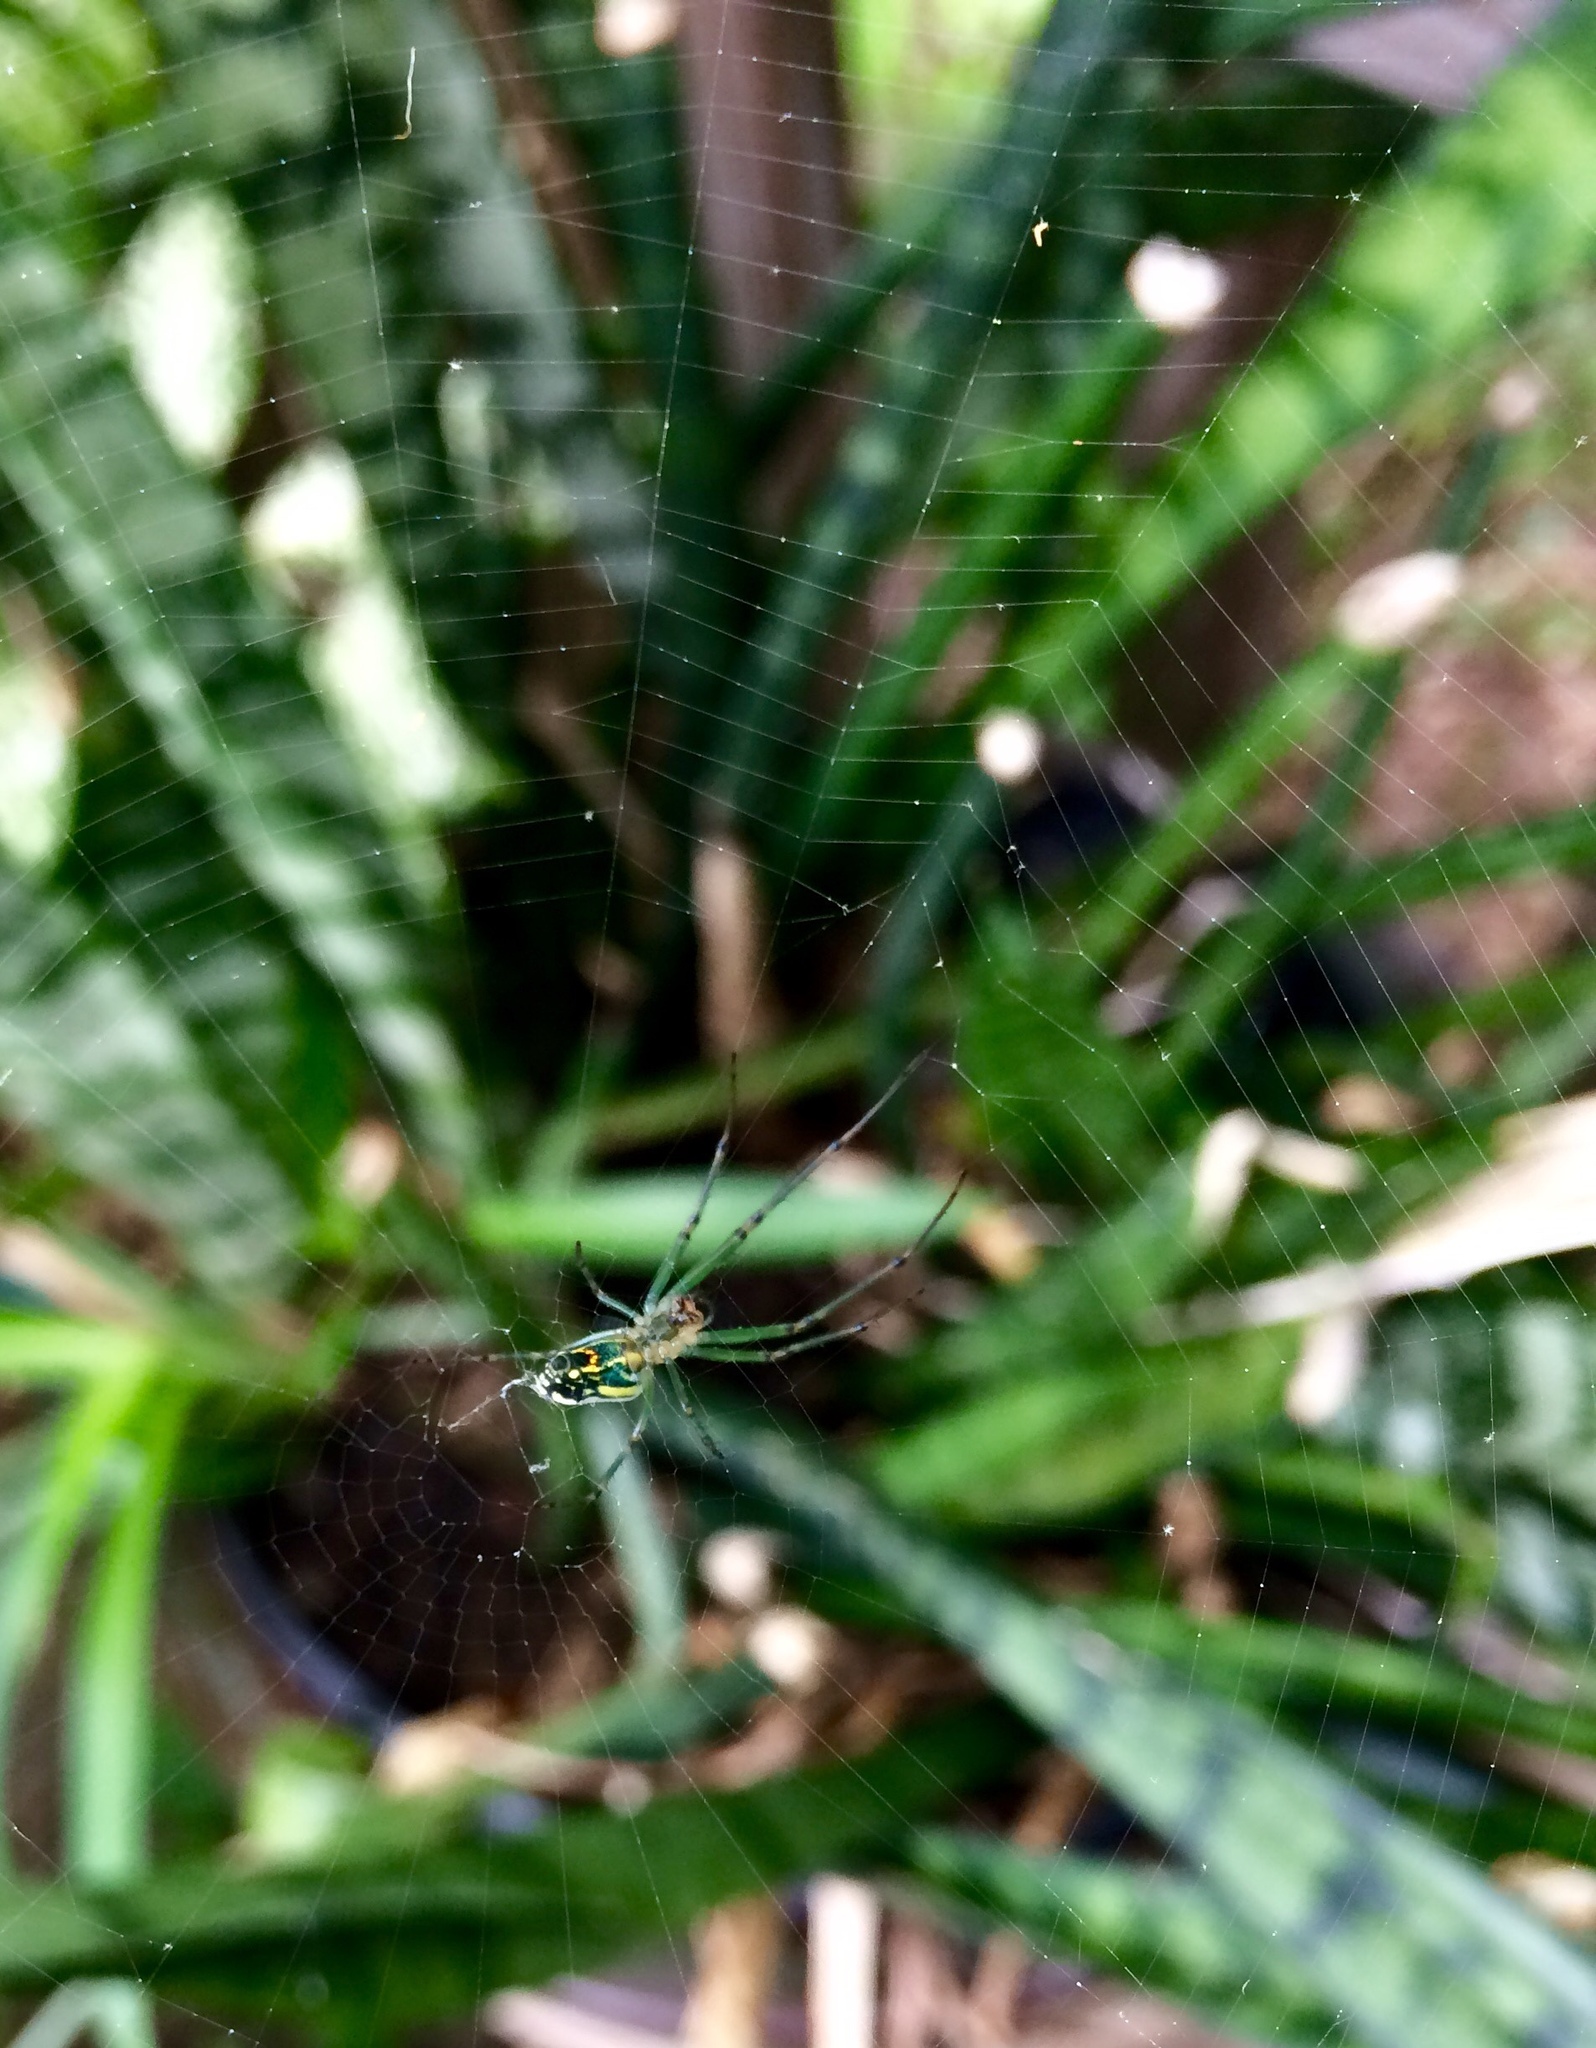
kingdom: Animalia
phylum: Arthropoda
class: Arachnida
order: Araneae
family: Tetragnathidae
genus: Leucauge
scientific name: Leucauge venusta
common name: Longjawed orb weavers
